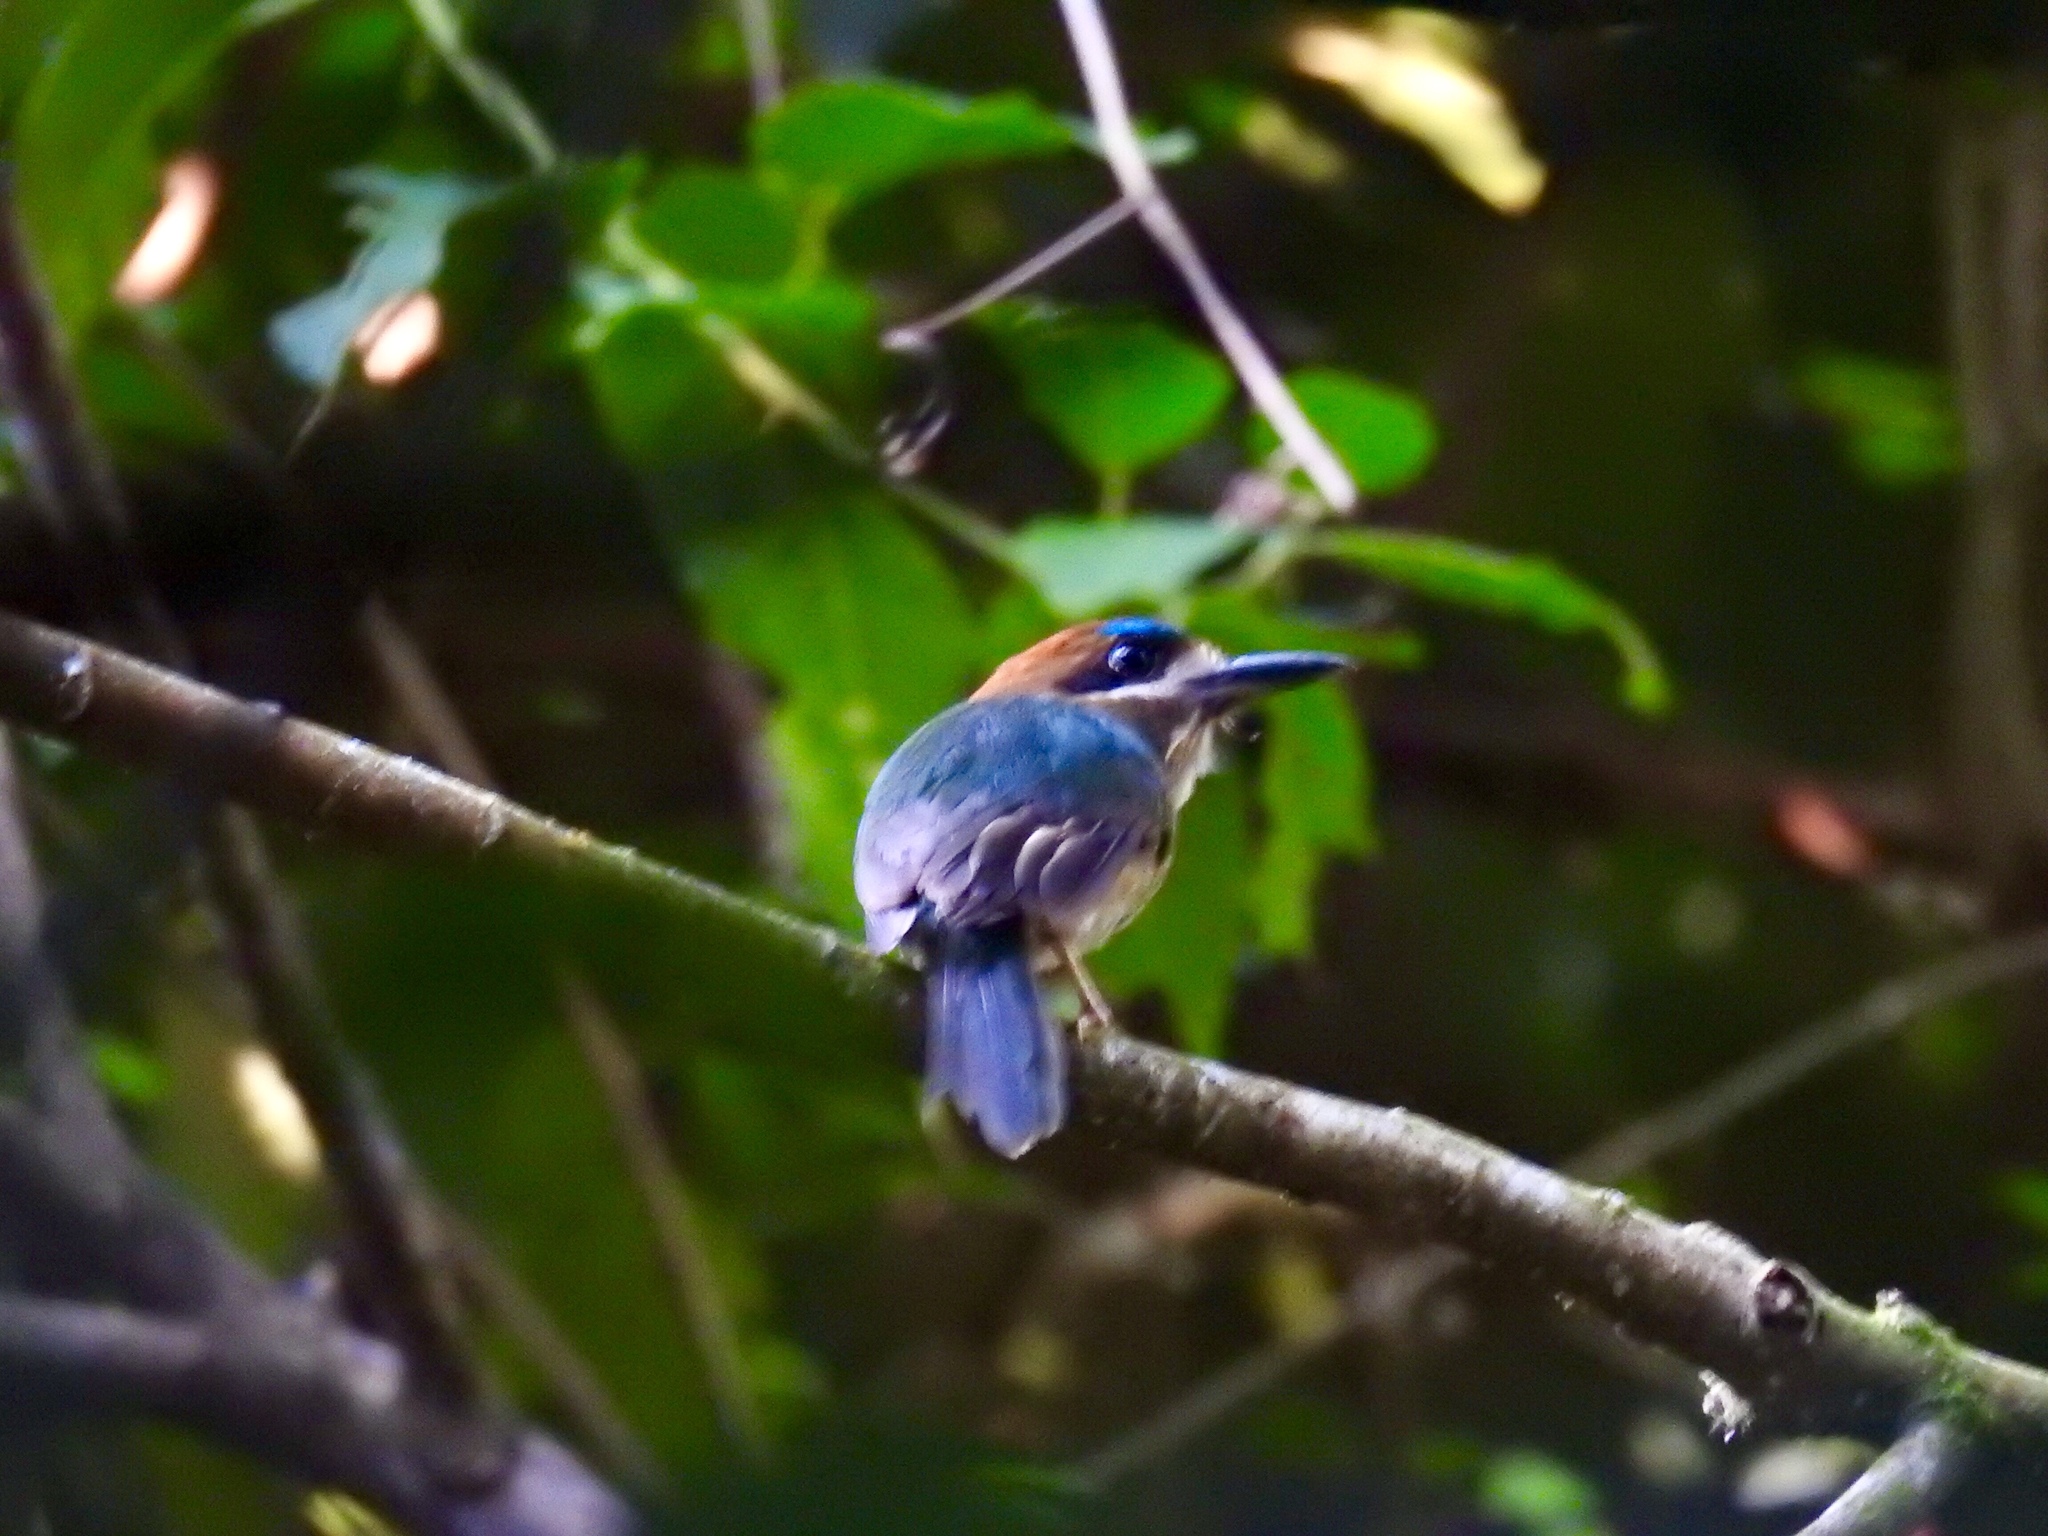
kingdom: Animalia
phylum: Chordata
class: Aves
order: Coraciiformes
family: Momotidae
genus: Hylomanes
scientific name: Hylomanes momotula
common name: Tody motmot
